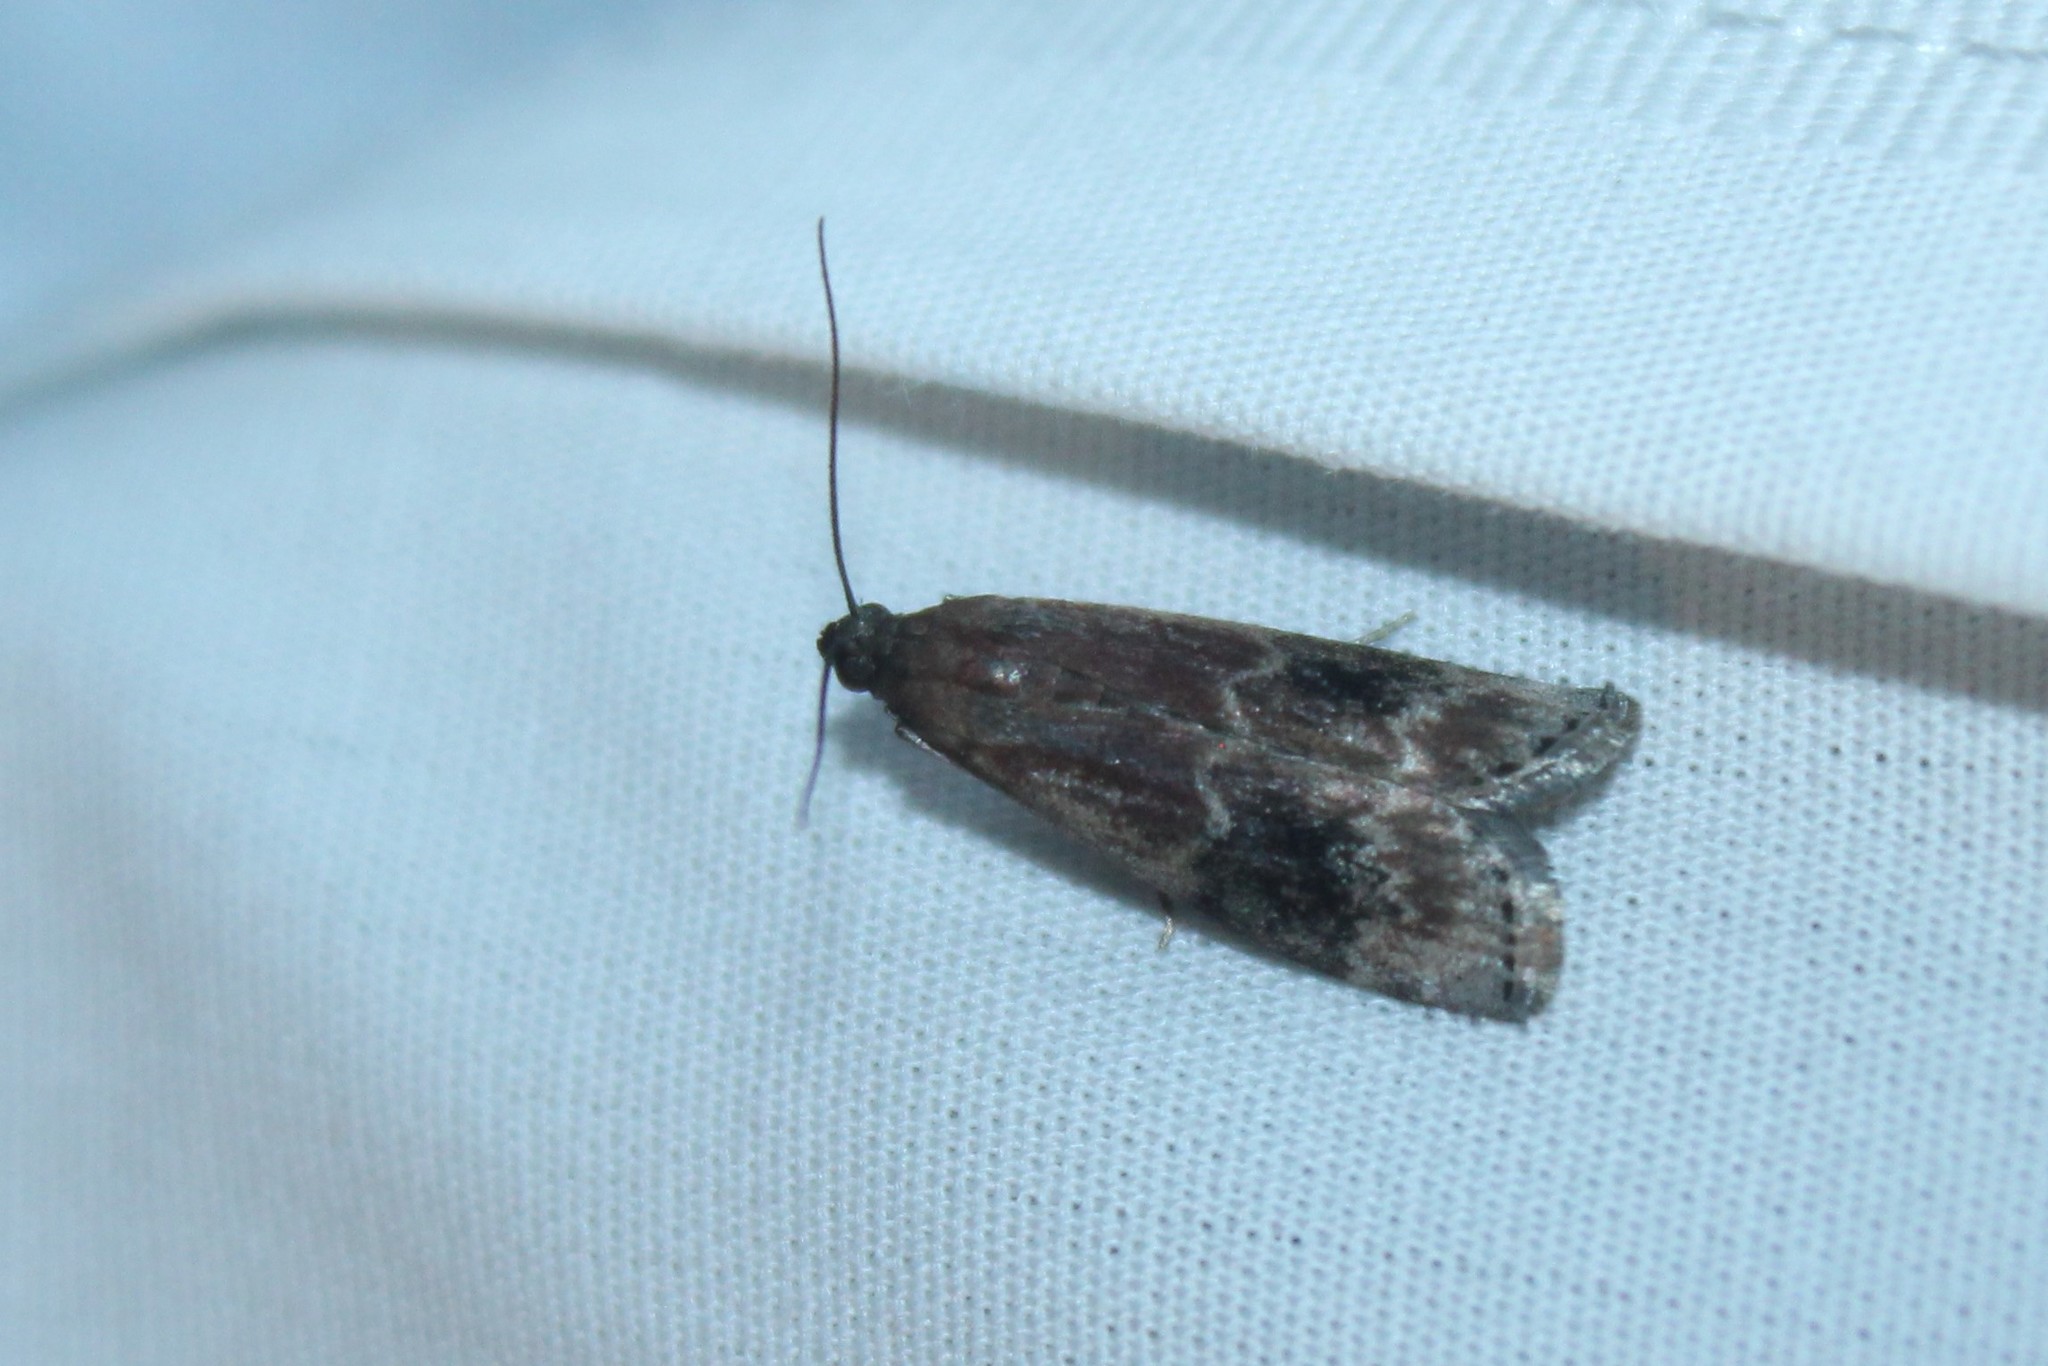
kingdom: Animalia
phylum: Arthropoda
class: Insecta
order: Lepidoptera
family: Pyralidae
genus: Euzophera
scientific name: Euzophera ostricolorella
